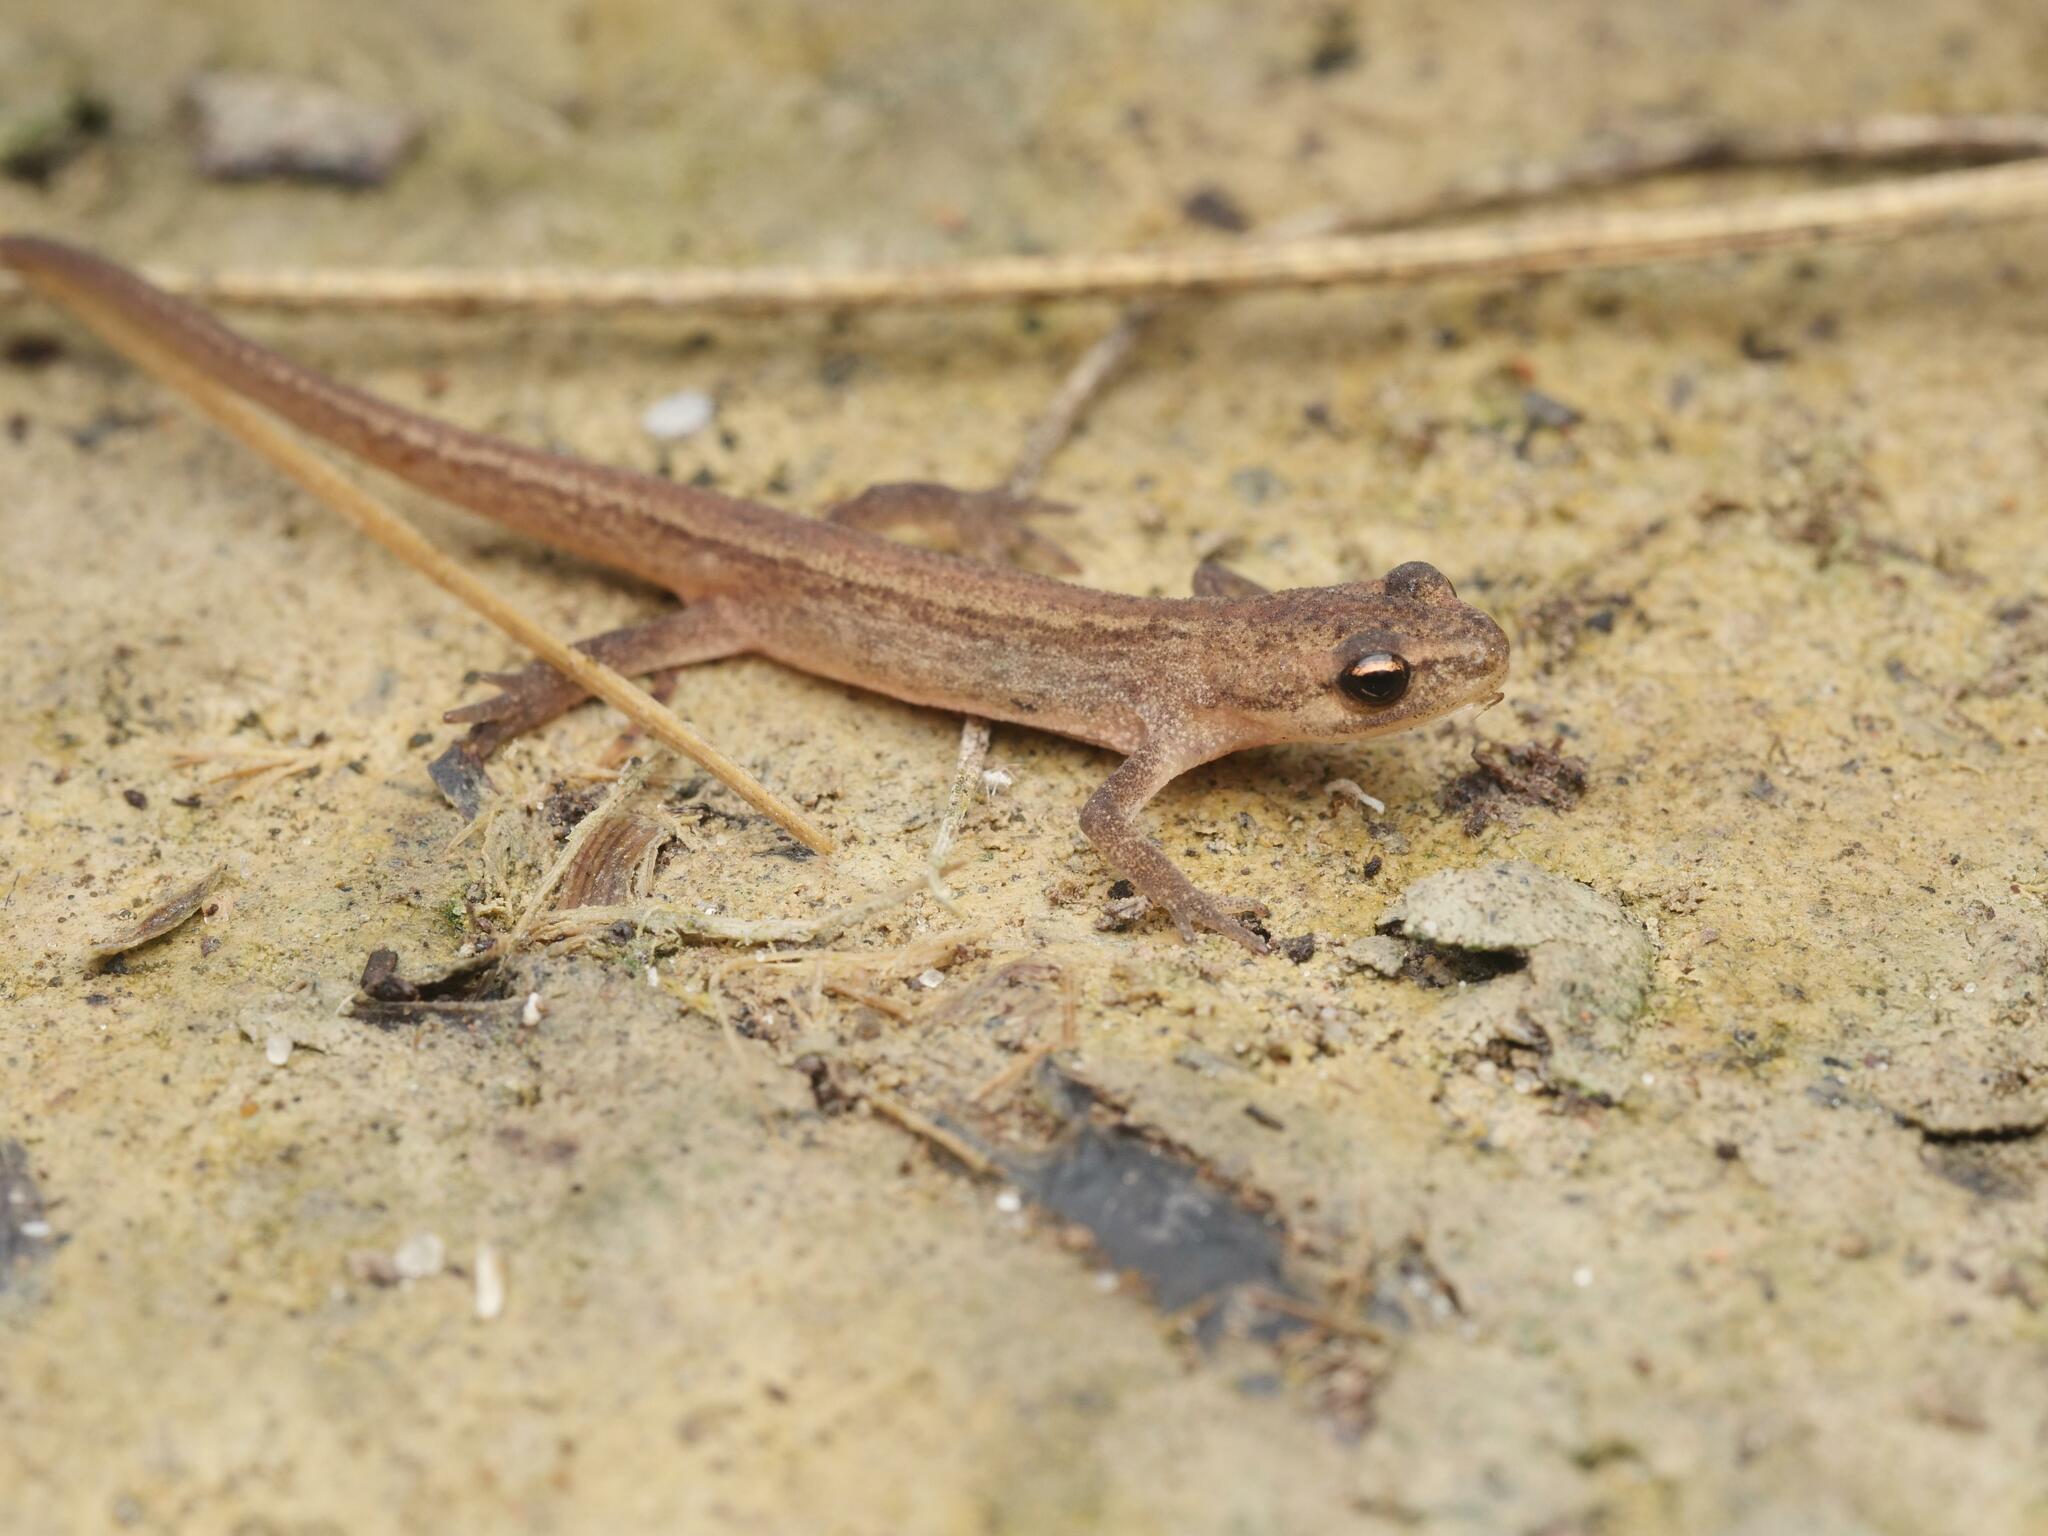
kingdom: Animalia
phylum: Chordata
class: Amphibia
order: Caudata
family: Salamandridae
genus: Lissotriton
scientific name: Lissotriton vulgaris
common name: Smooth newt
